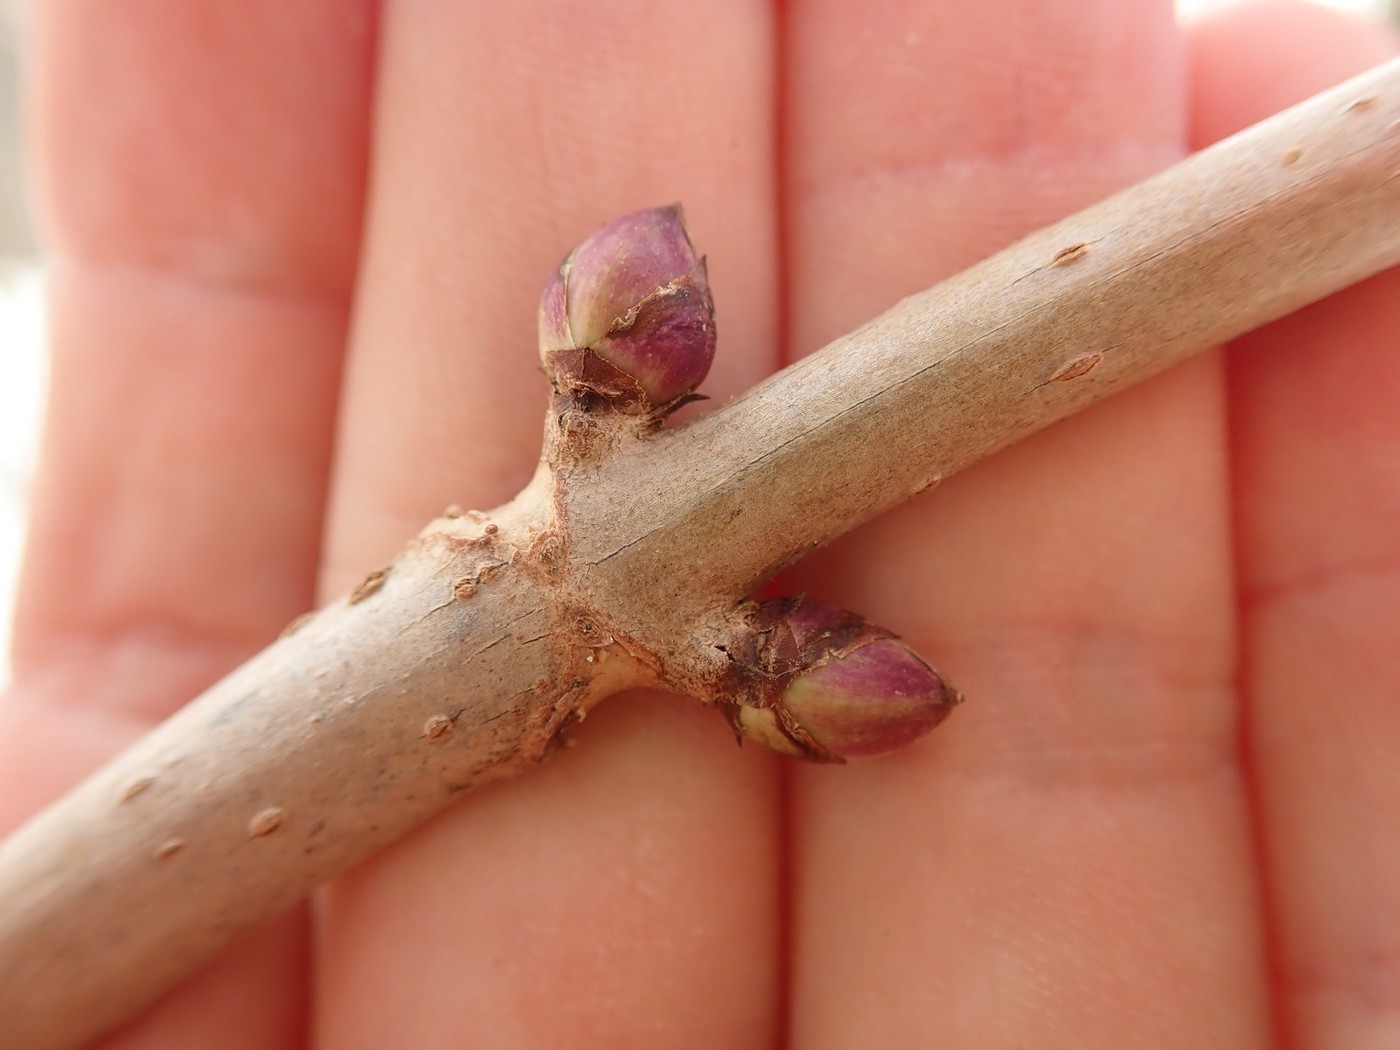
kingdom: Plantae
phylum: Tracheophyta
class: Magnoliopsida
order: Dipsacales
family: Viburnaceae
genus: Sambucus
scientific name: Sambucus racemosa
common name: Red-berried elder
